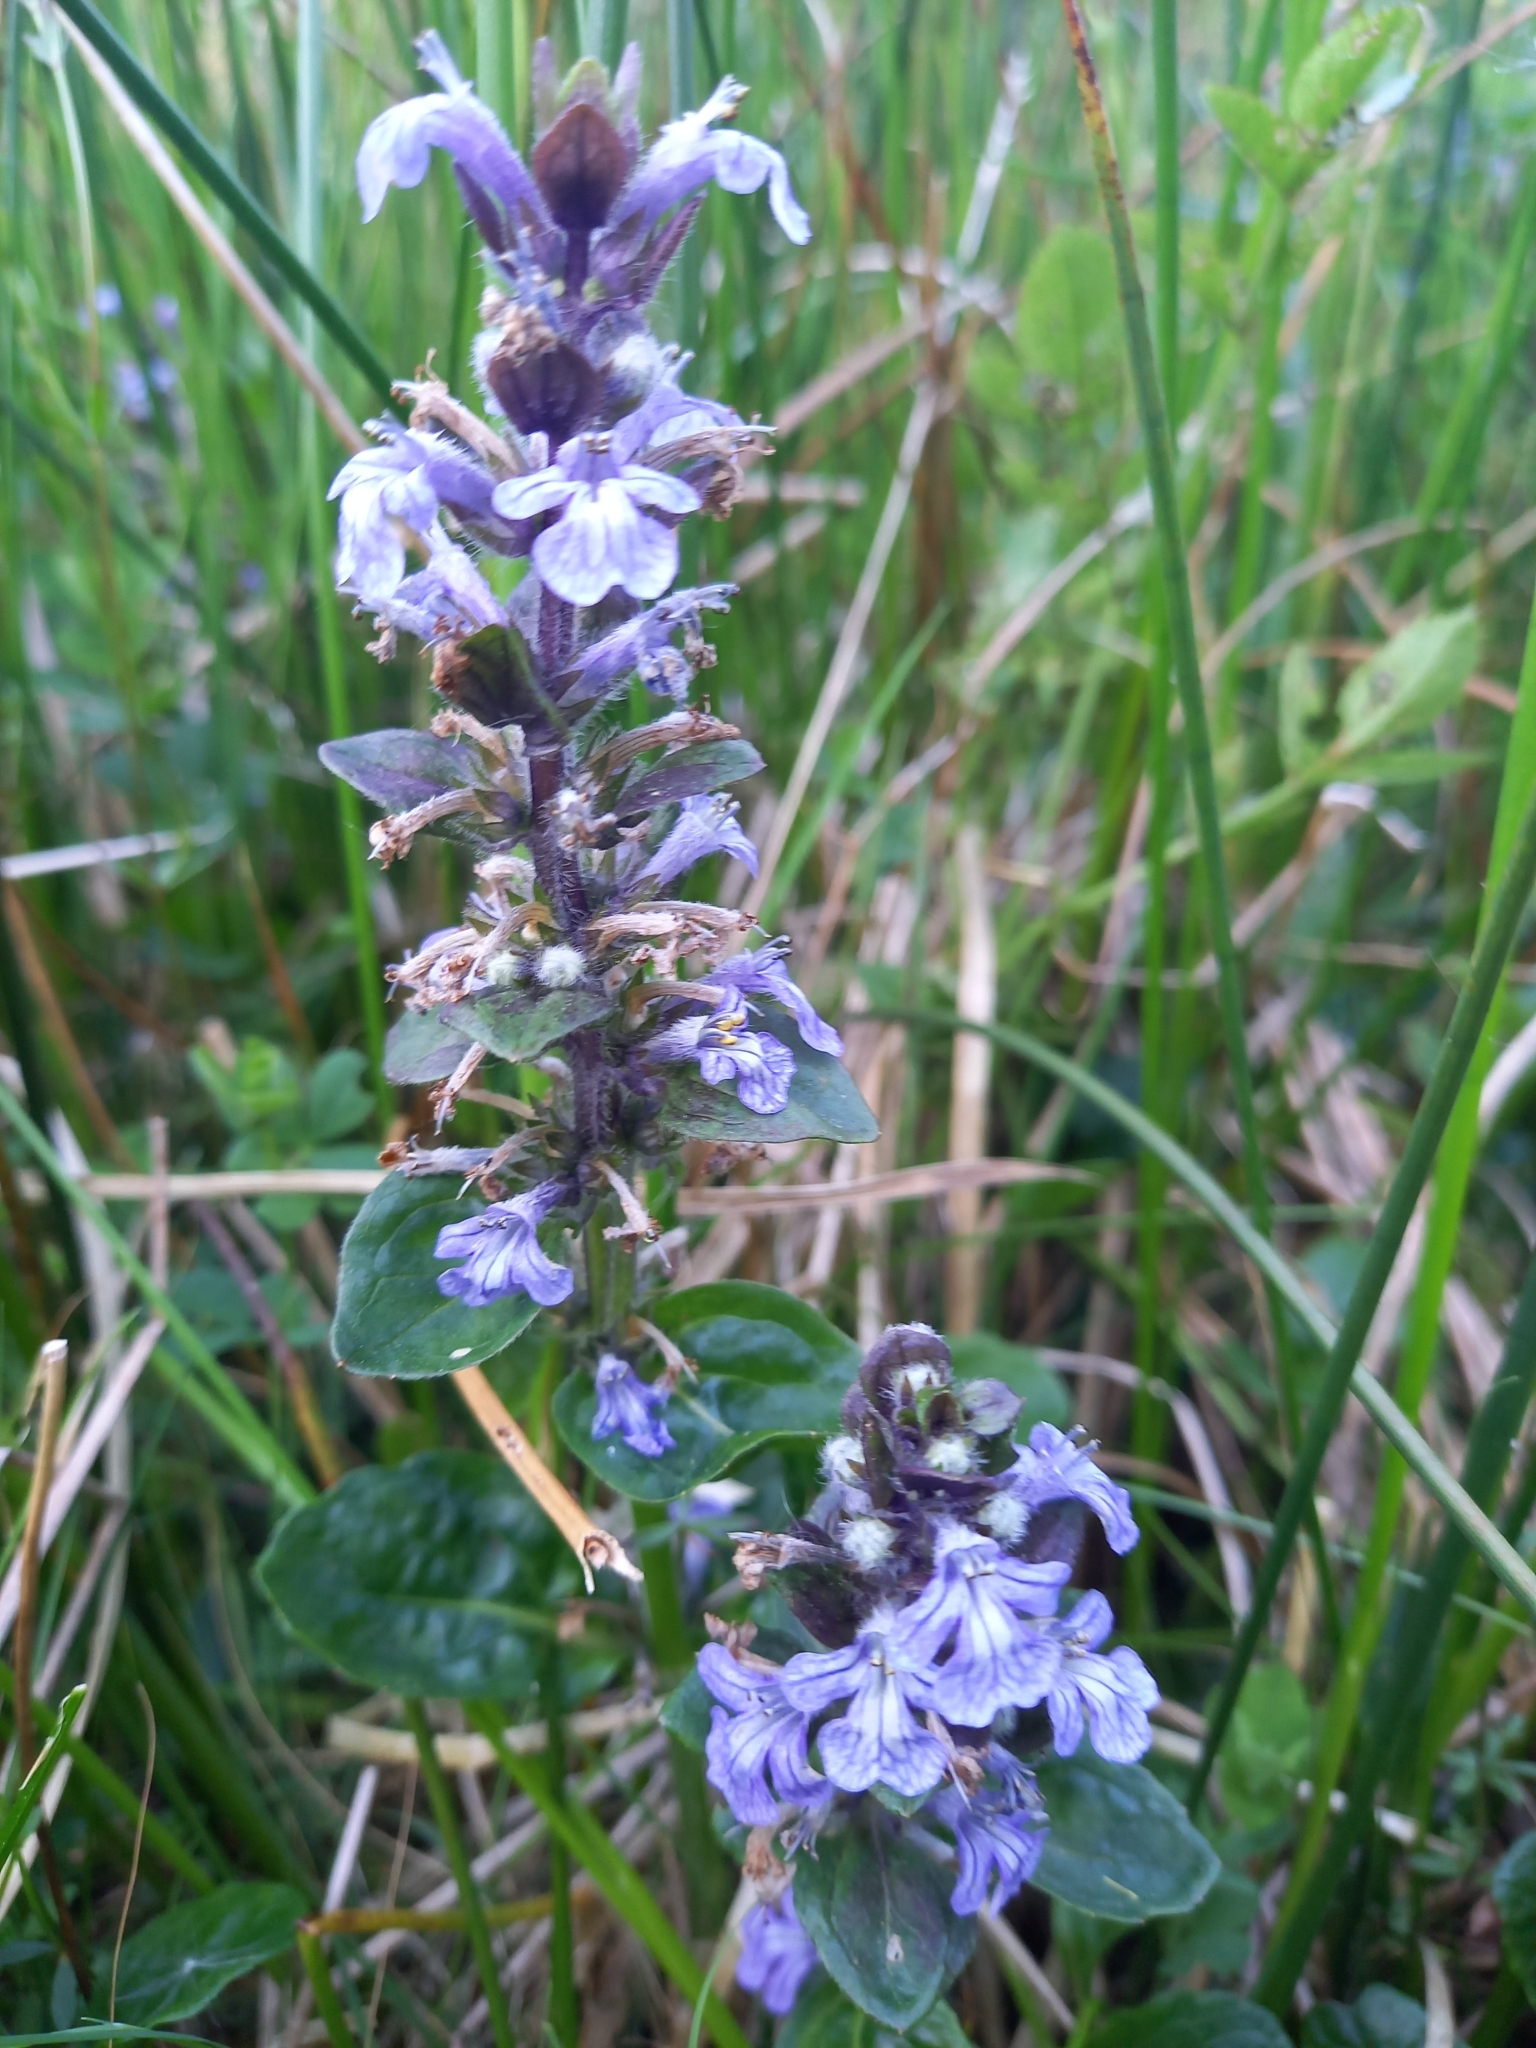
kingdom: Plantae
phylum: Tracheophyta
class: Magnoliopsida
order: Lamiales
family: Lamiaceae
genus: Ajuga
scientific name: Ajuga reptans
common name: Bugle
